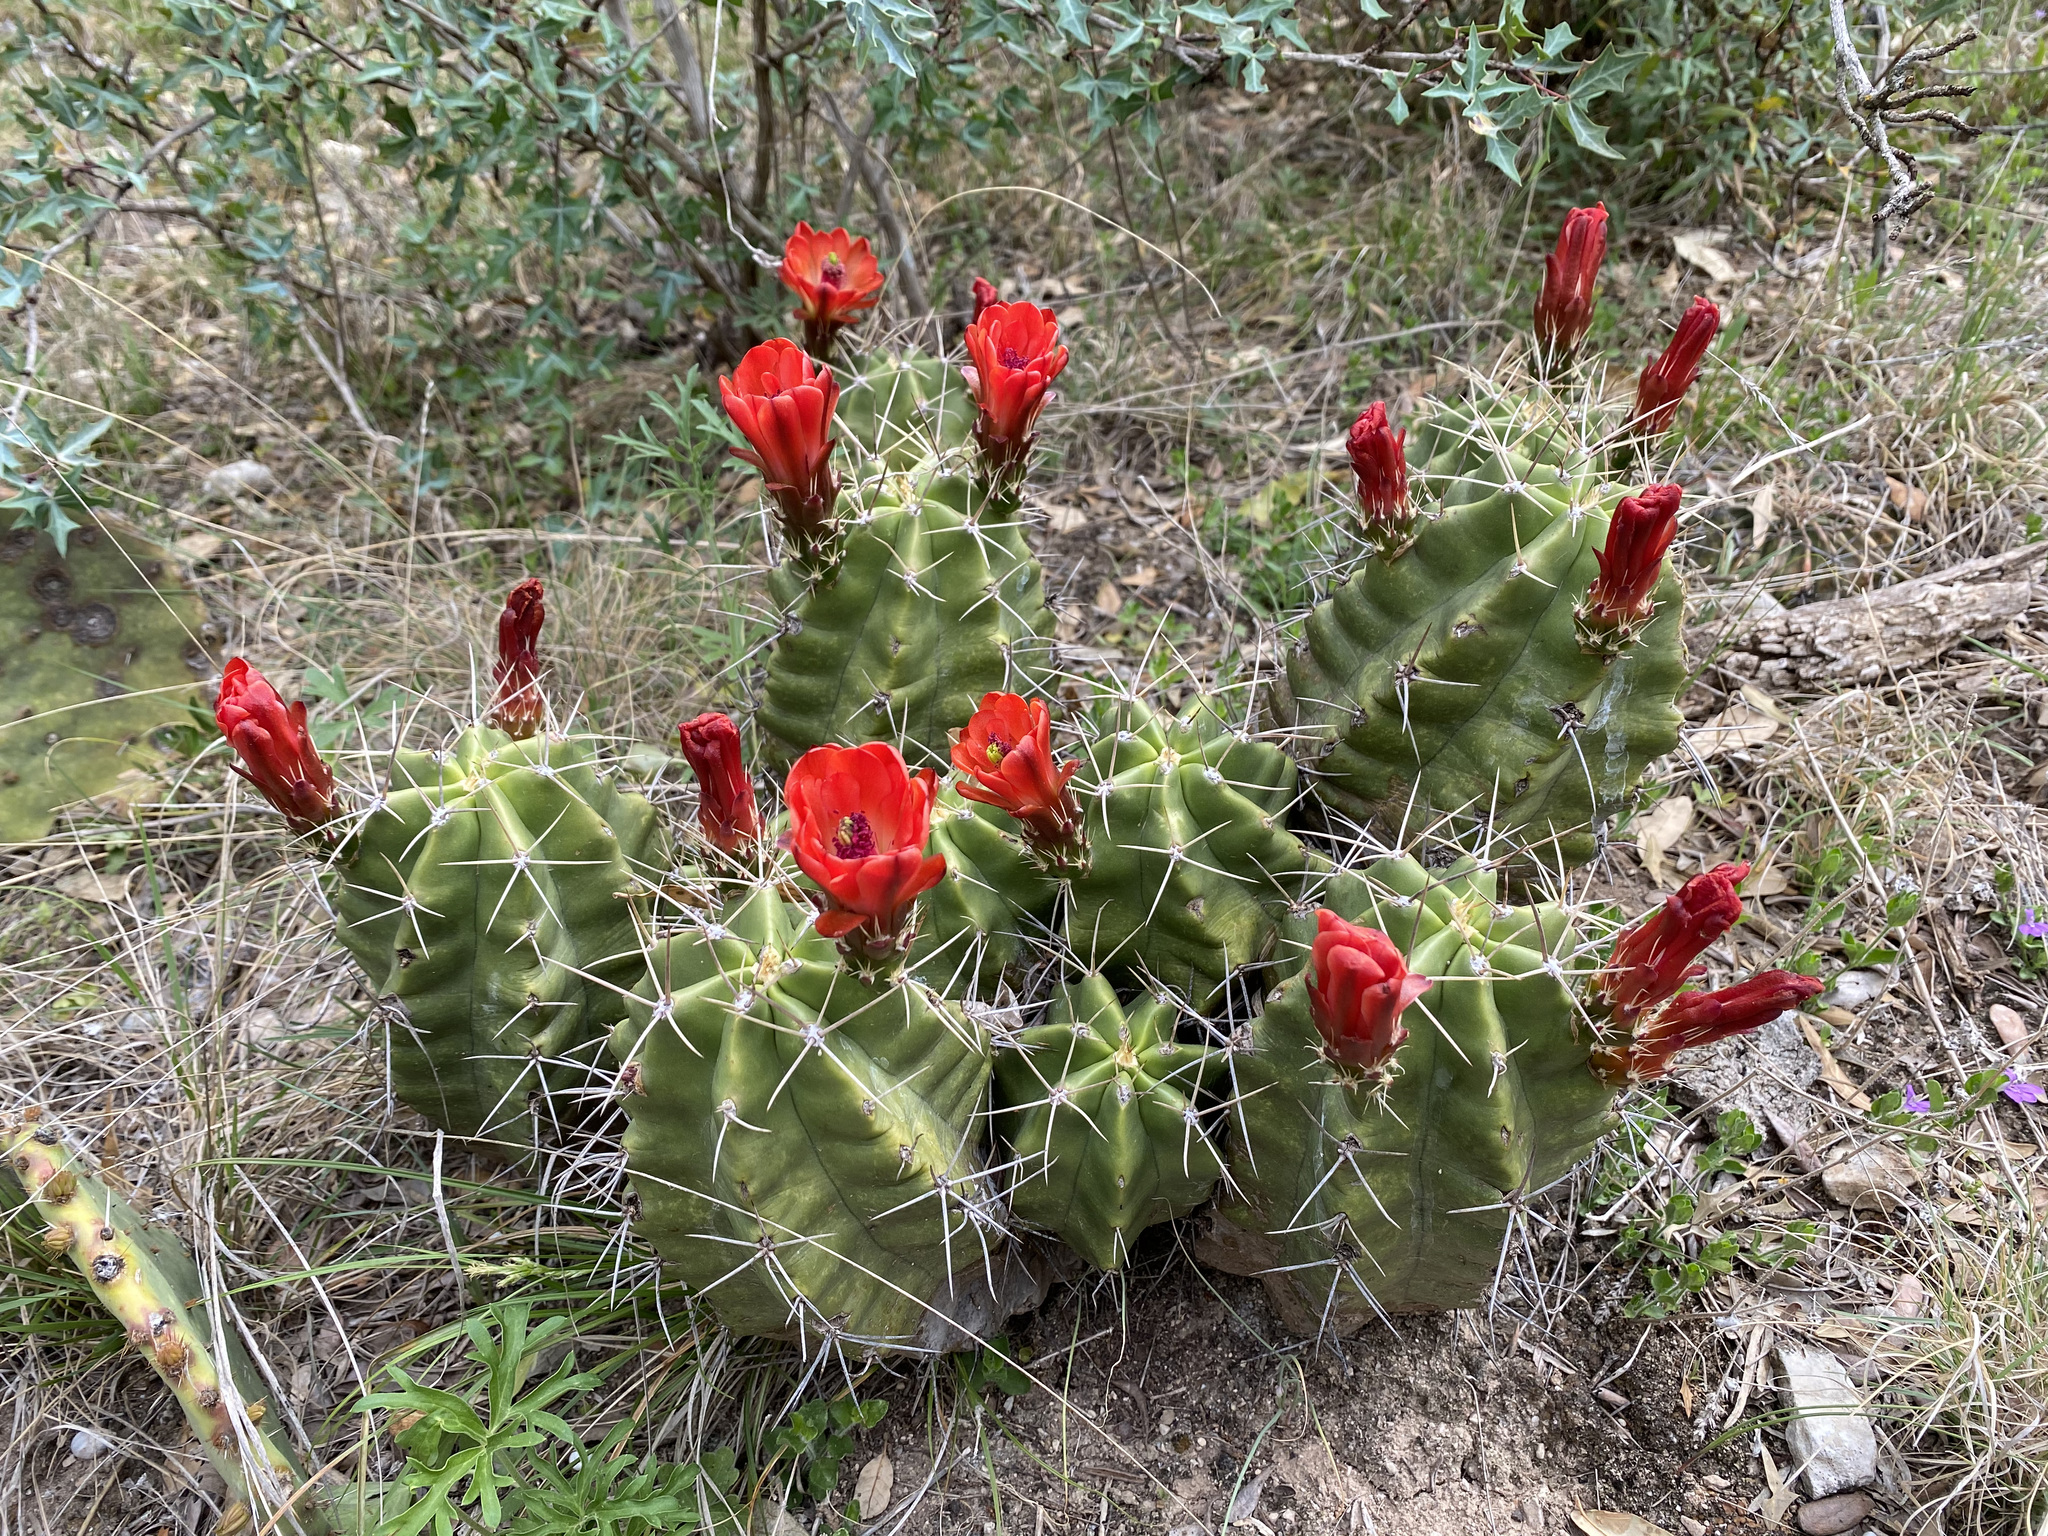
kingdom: Plantae
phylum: Tracheophyta
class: Magnoliopsida
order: Caryophyllales
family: Cactaceae
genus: Echinocereus
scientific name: Echinocereus coccineus
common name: Scarlet hedgehog cactus
